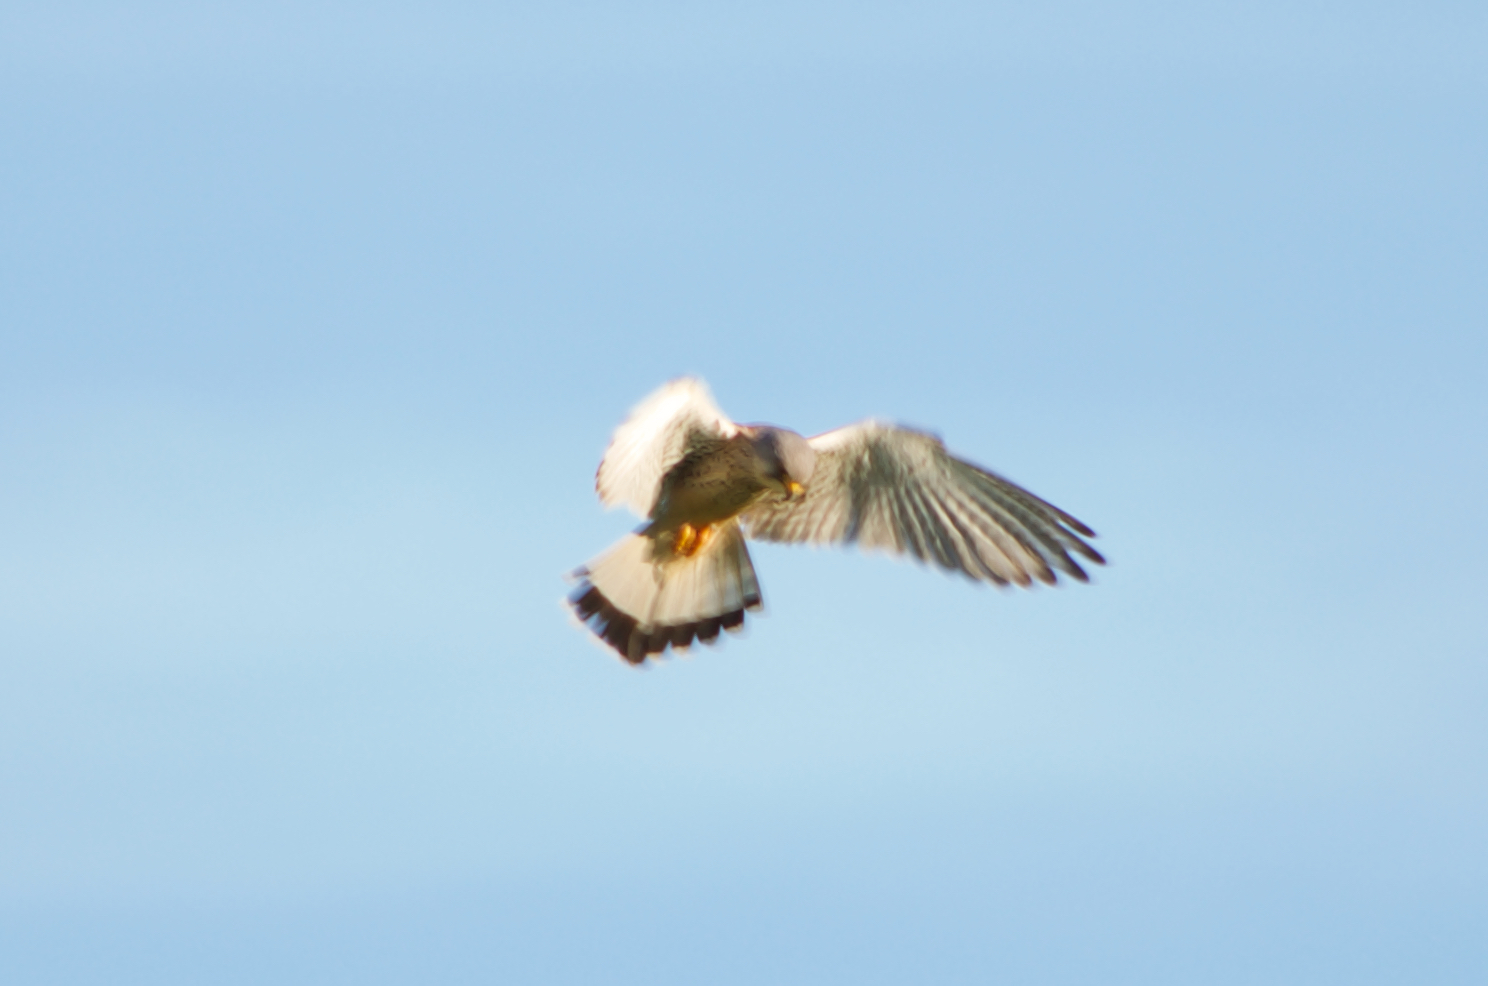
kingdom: Animalia
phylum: Chordata
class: Aves
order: Falconiformes
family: Falconidae
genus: Falco
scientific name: Falco tinnunculus
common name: Common kestrel
